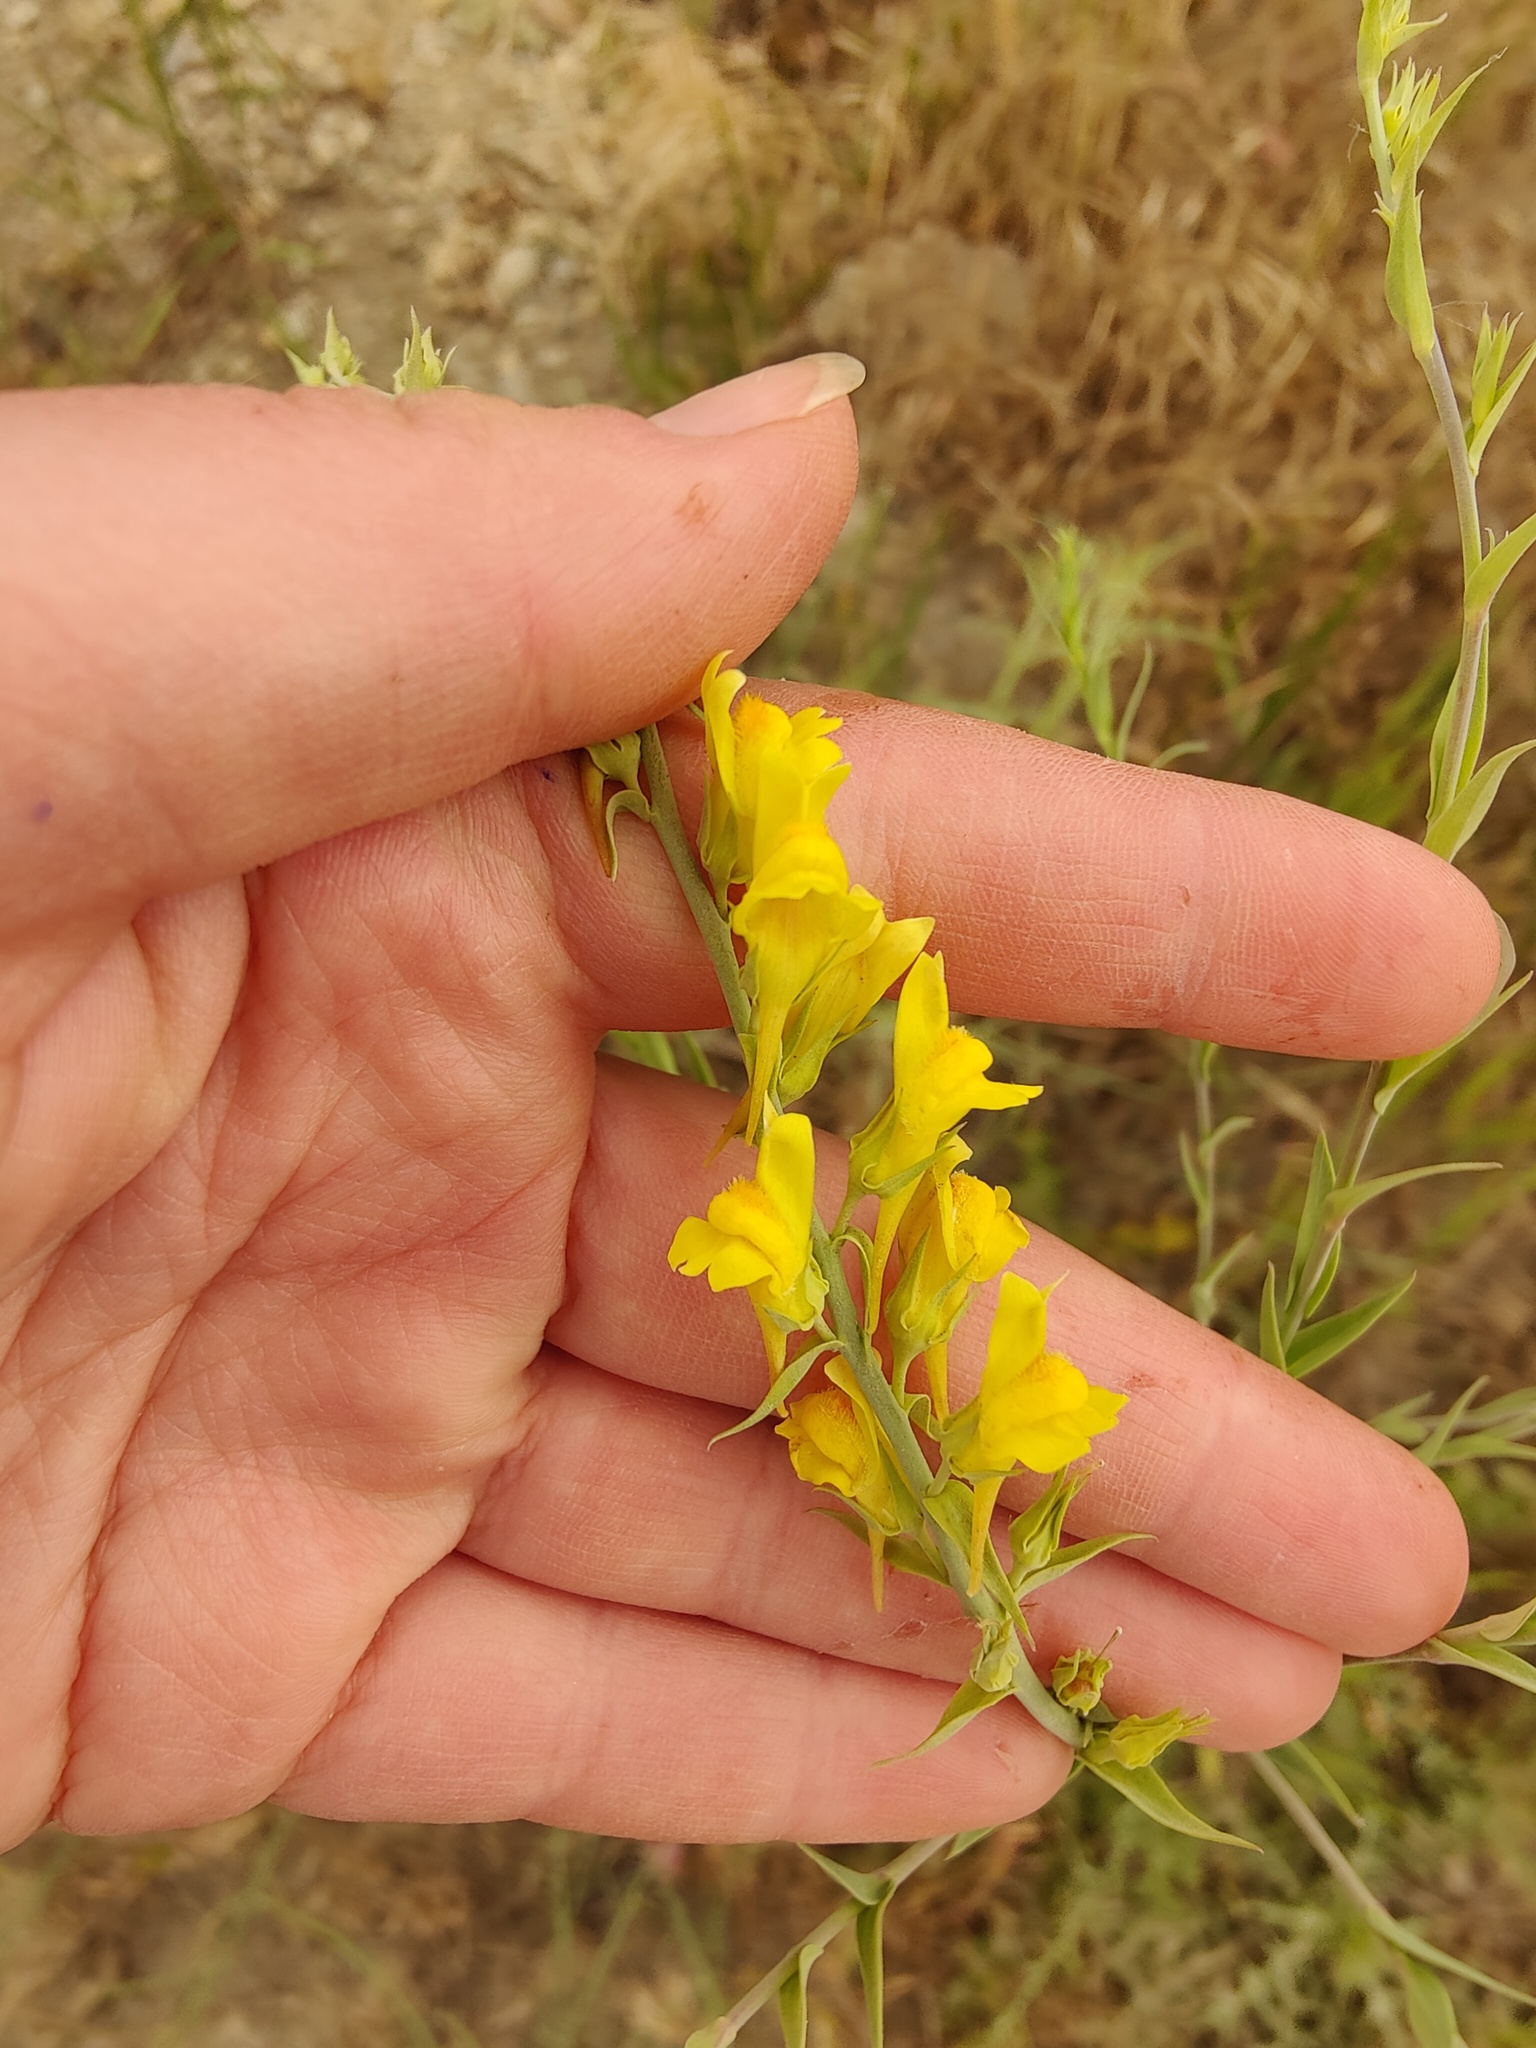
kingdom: Plantae
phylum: Tracheophyta
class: Magnoliopsida
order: Lamiales
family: Plantaginaceae
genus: Linaria
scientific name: Linaria genistifolia
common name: Broomleaf toadflax
